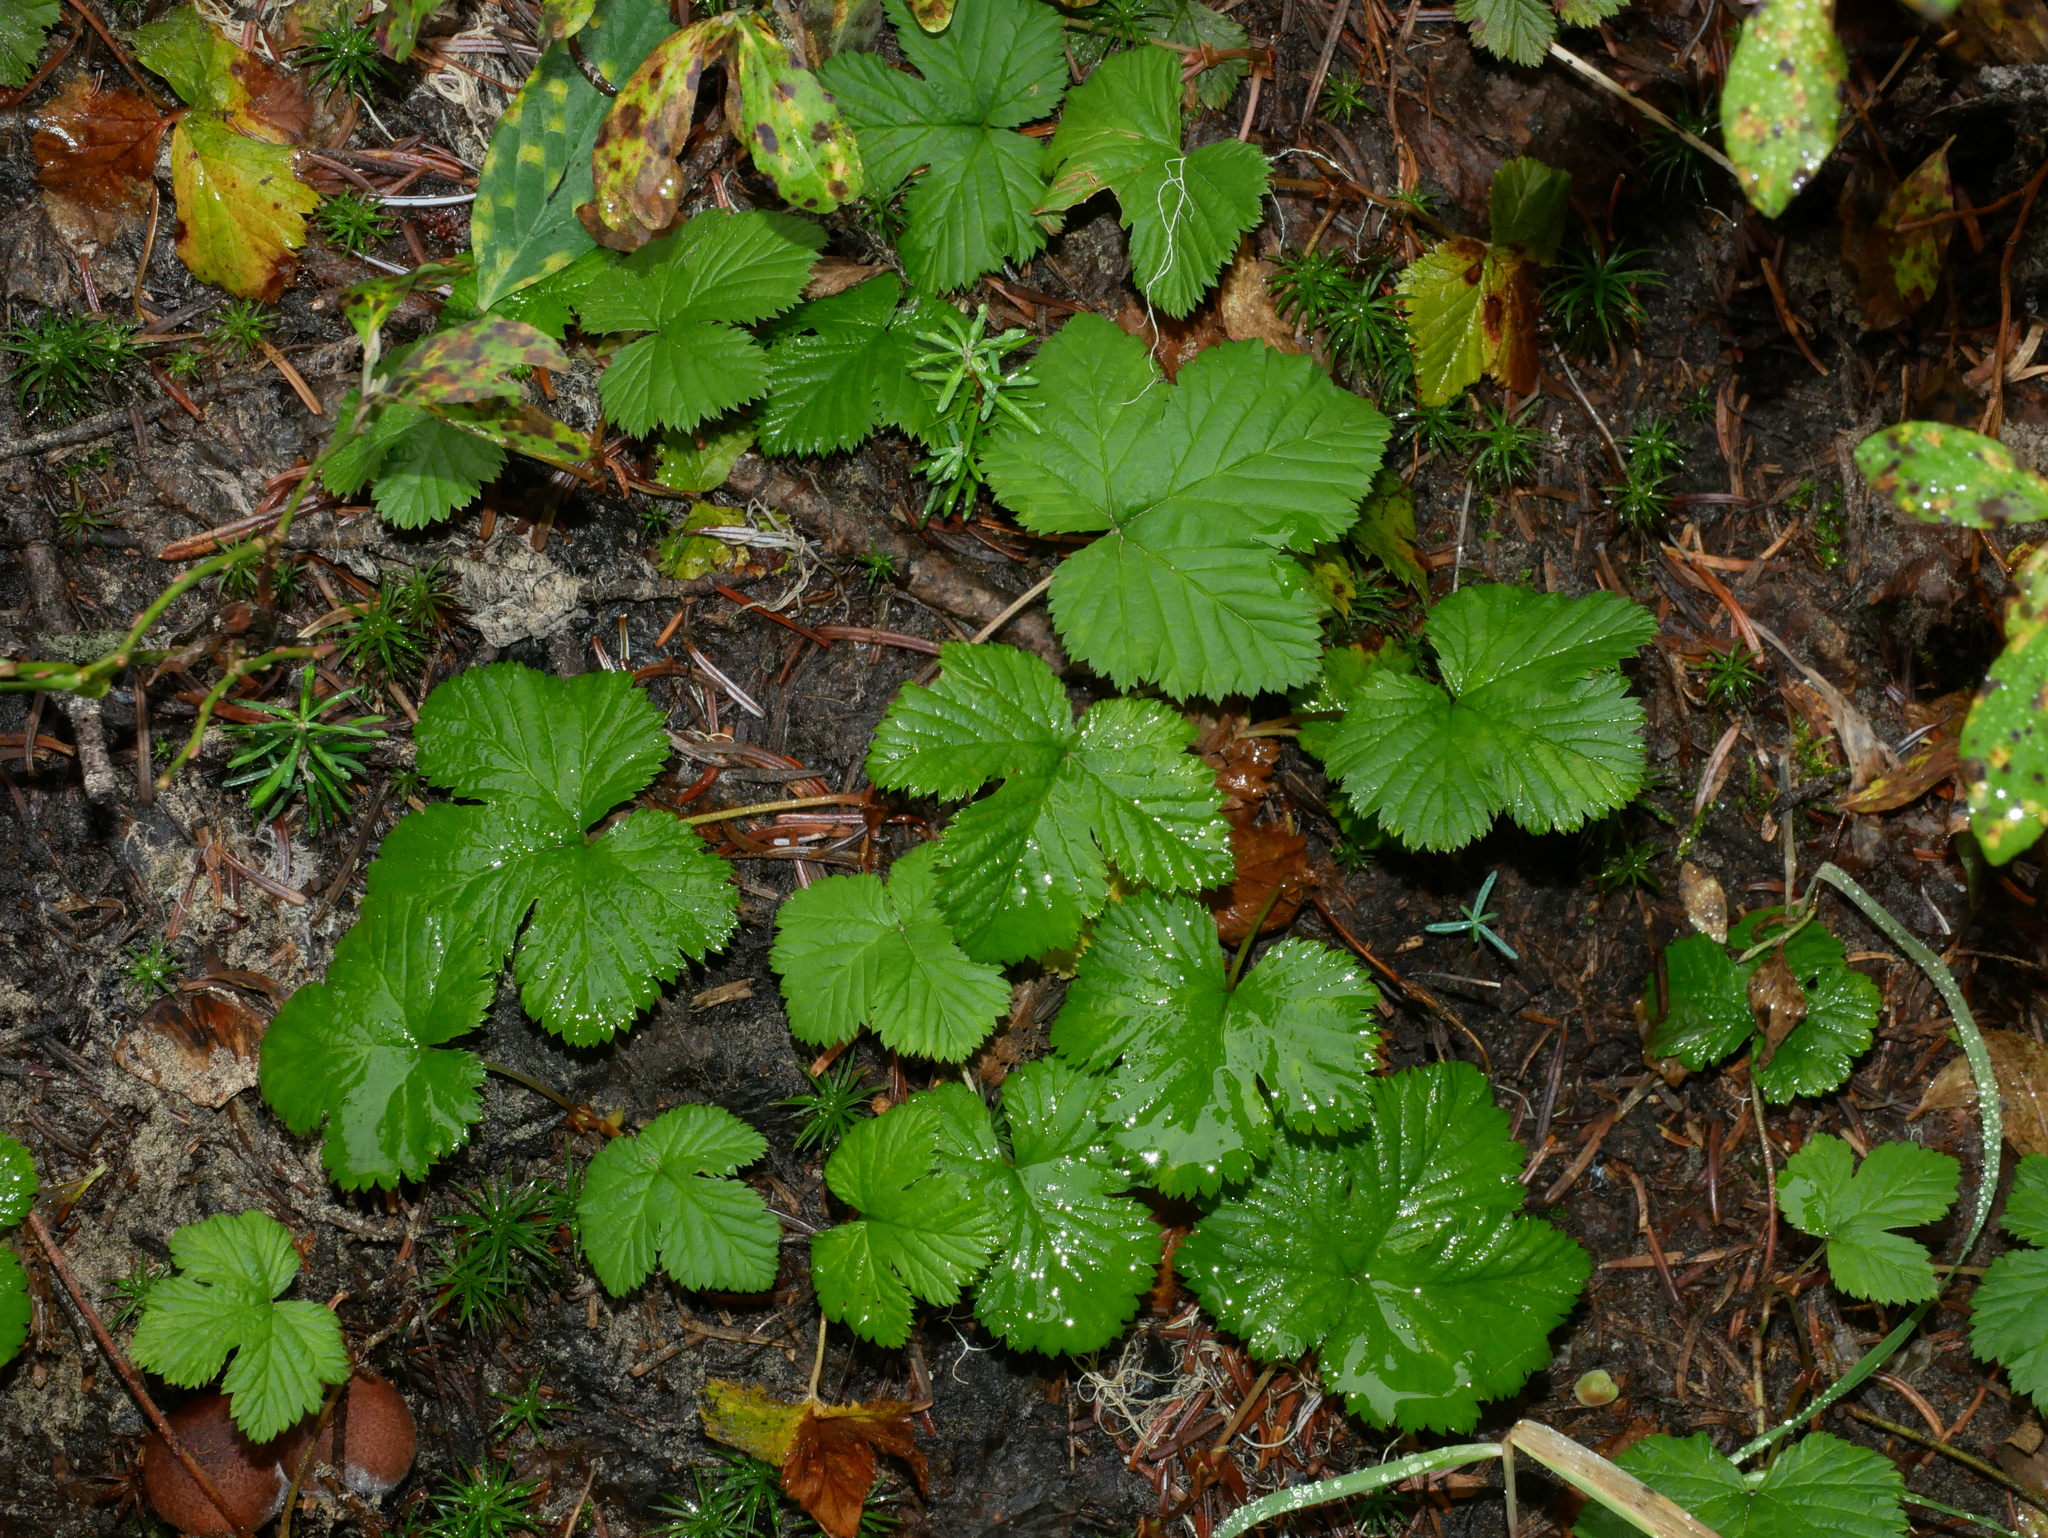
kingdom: Plantae
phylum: Tracheophyta
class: Magnoliopsida
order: Rosales
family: Rosaceae
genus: Rubus
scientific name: Rubus lasiococcus
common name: Dwarf bramble
